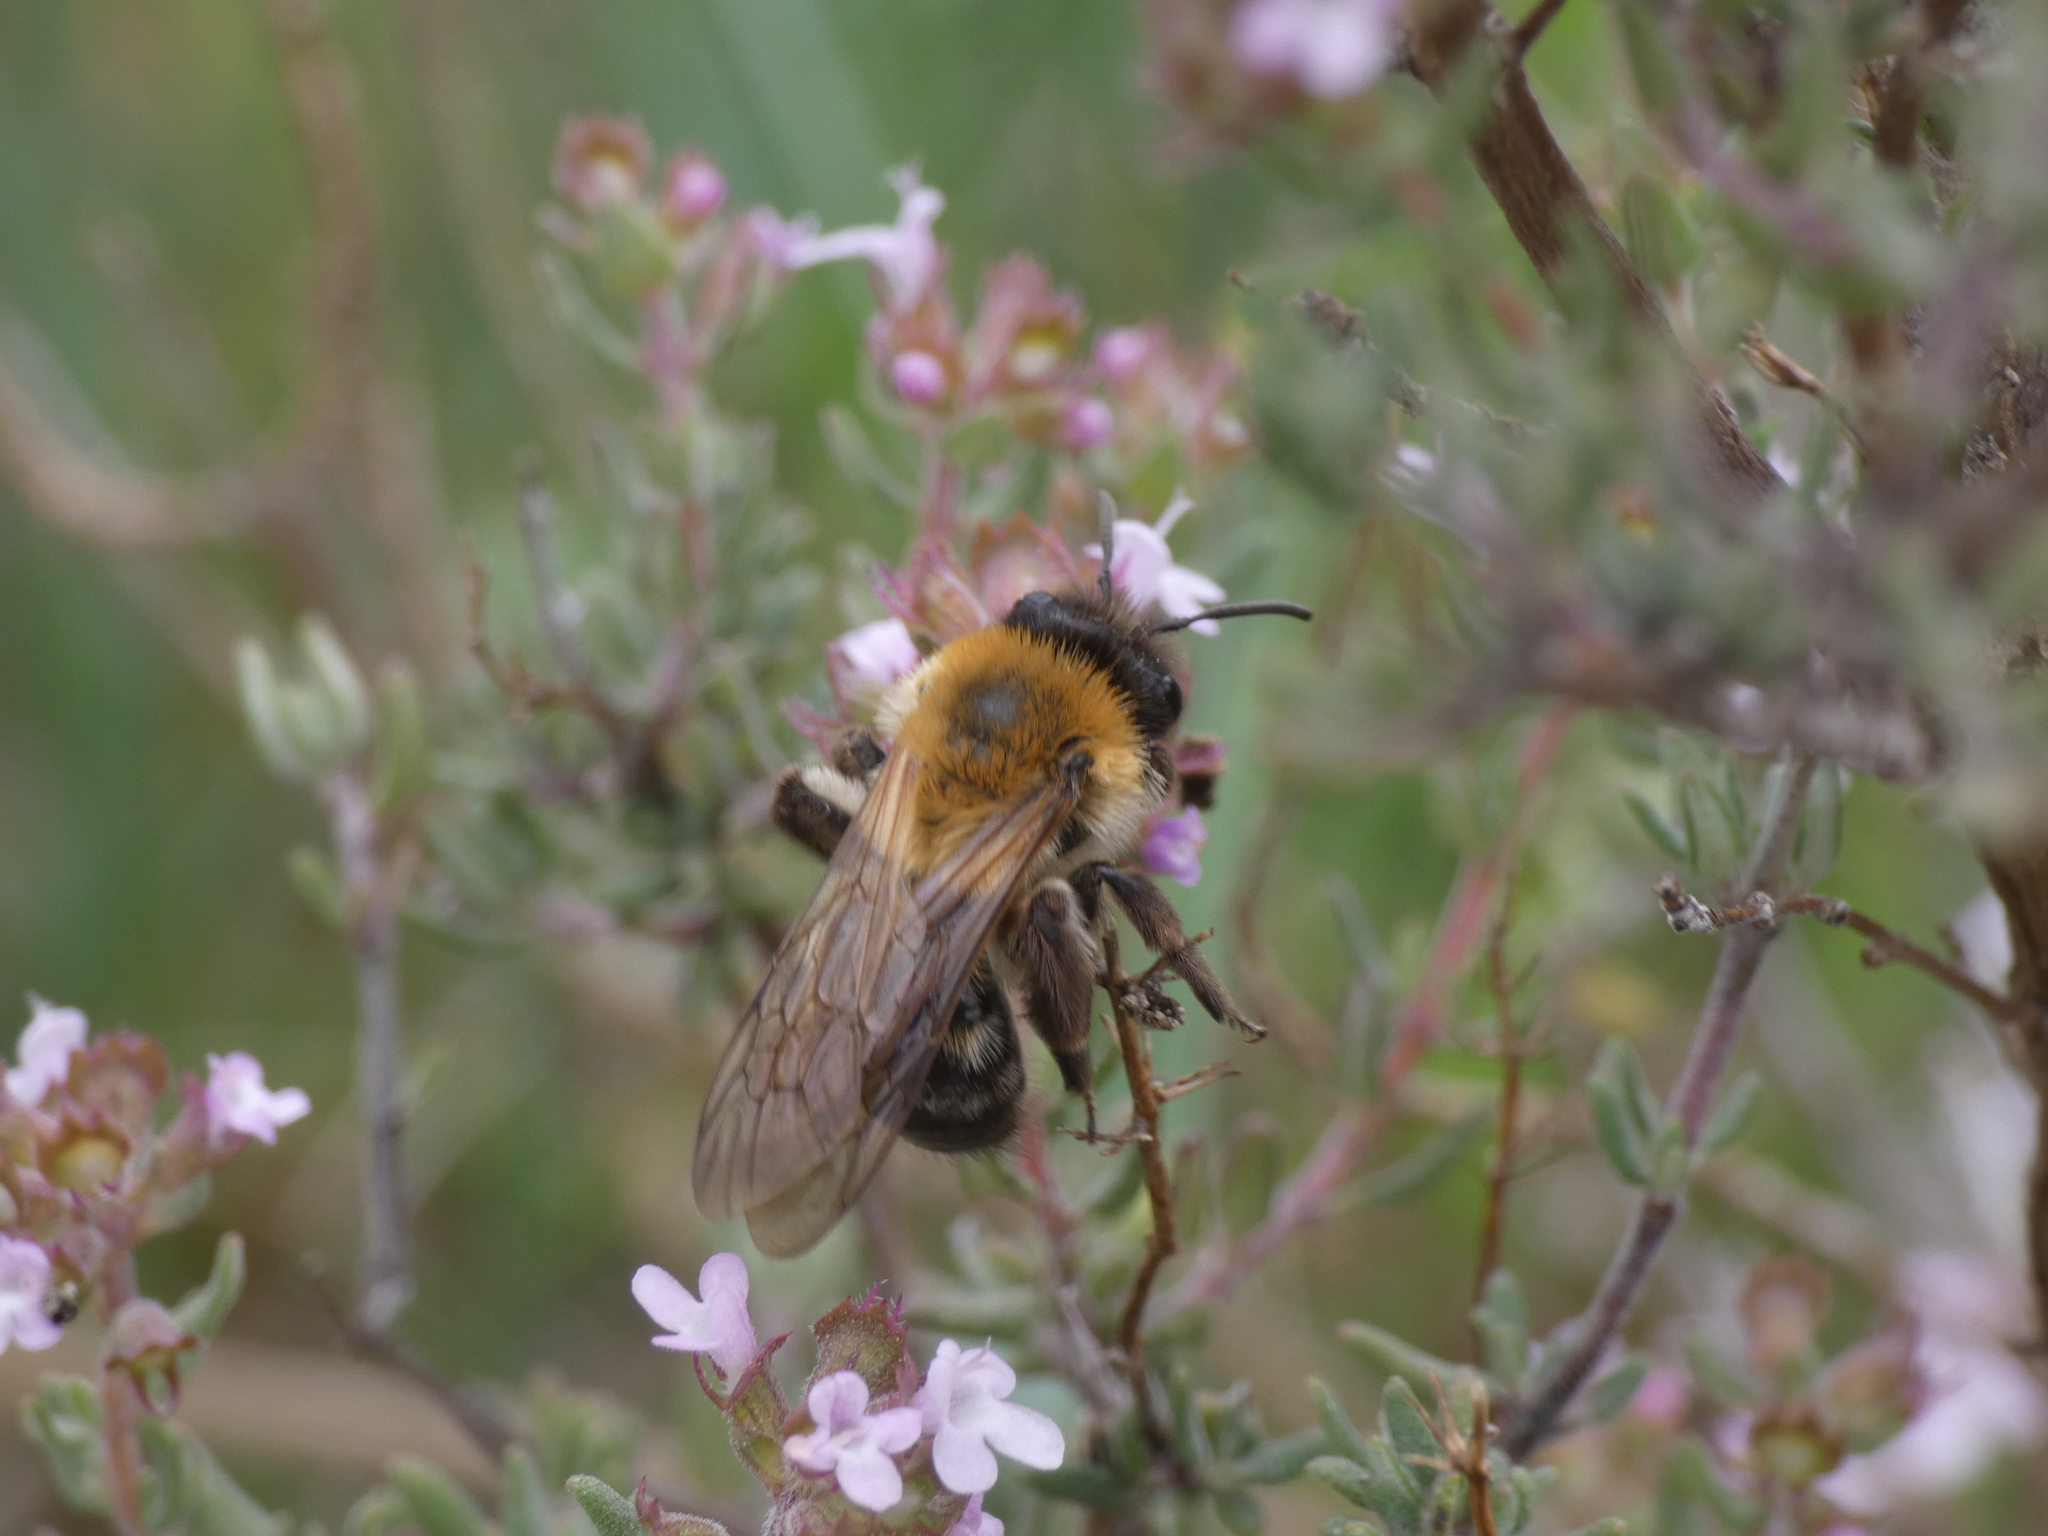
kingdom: Animalia
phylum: Arthropoda
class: Insecta
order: Hymenoptera
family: Andrenidae
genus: Andrena
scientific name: Andrena nitida
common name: Grey-patched mining bee
